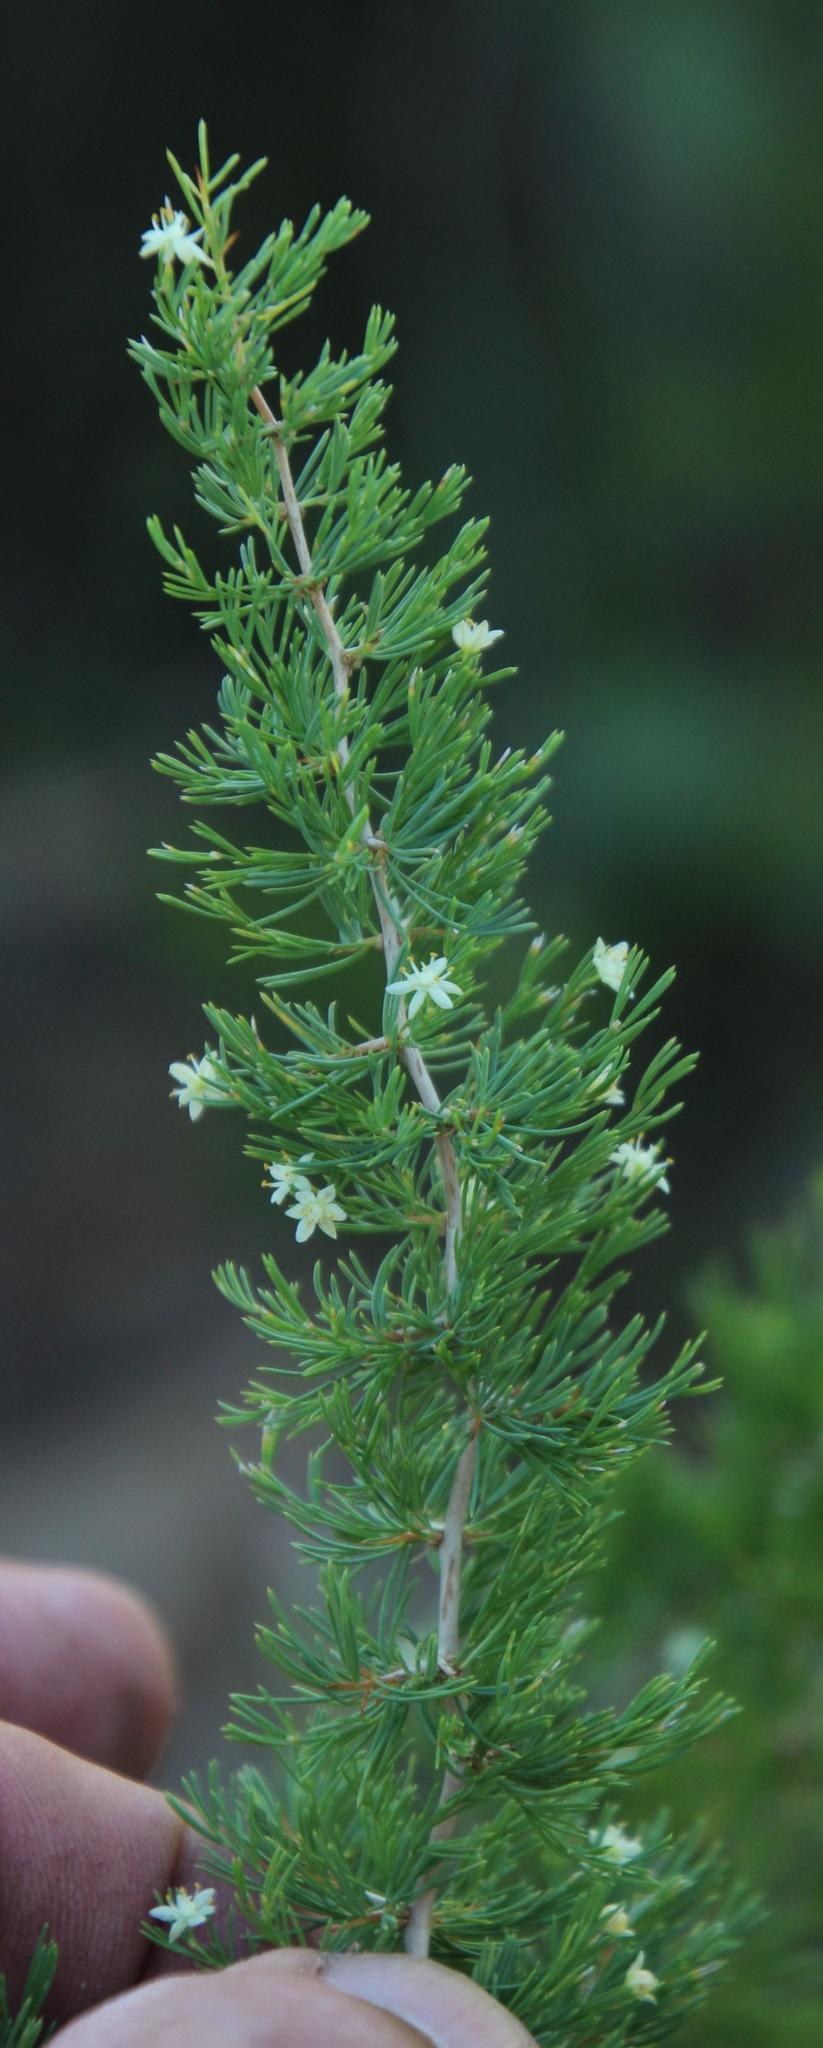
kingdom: Plantae
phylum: Tracheophyta
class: Liliopsida
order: Asparagales
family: Asparagaceae
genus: Asparagus
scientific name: Asparagus suaveolens
